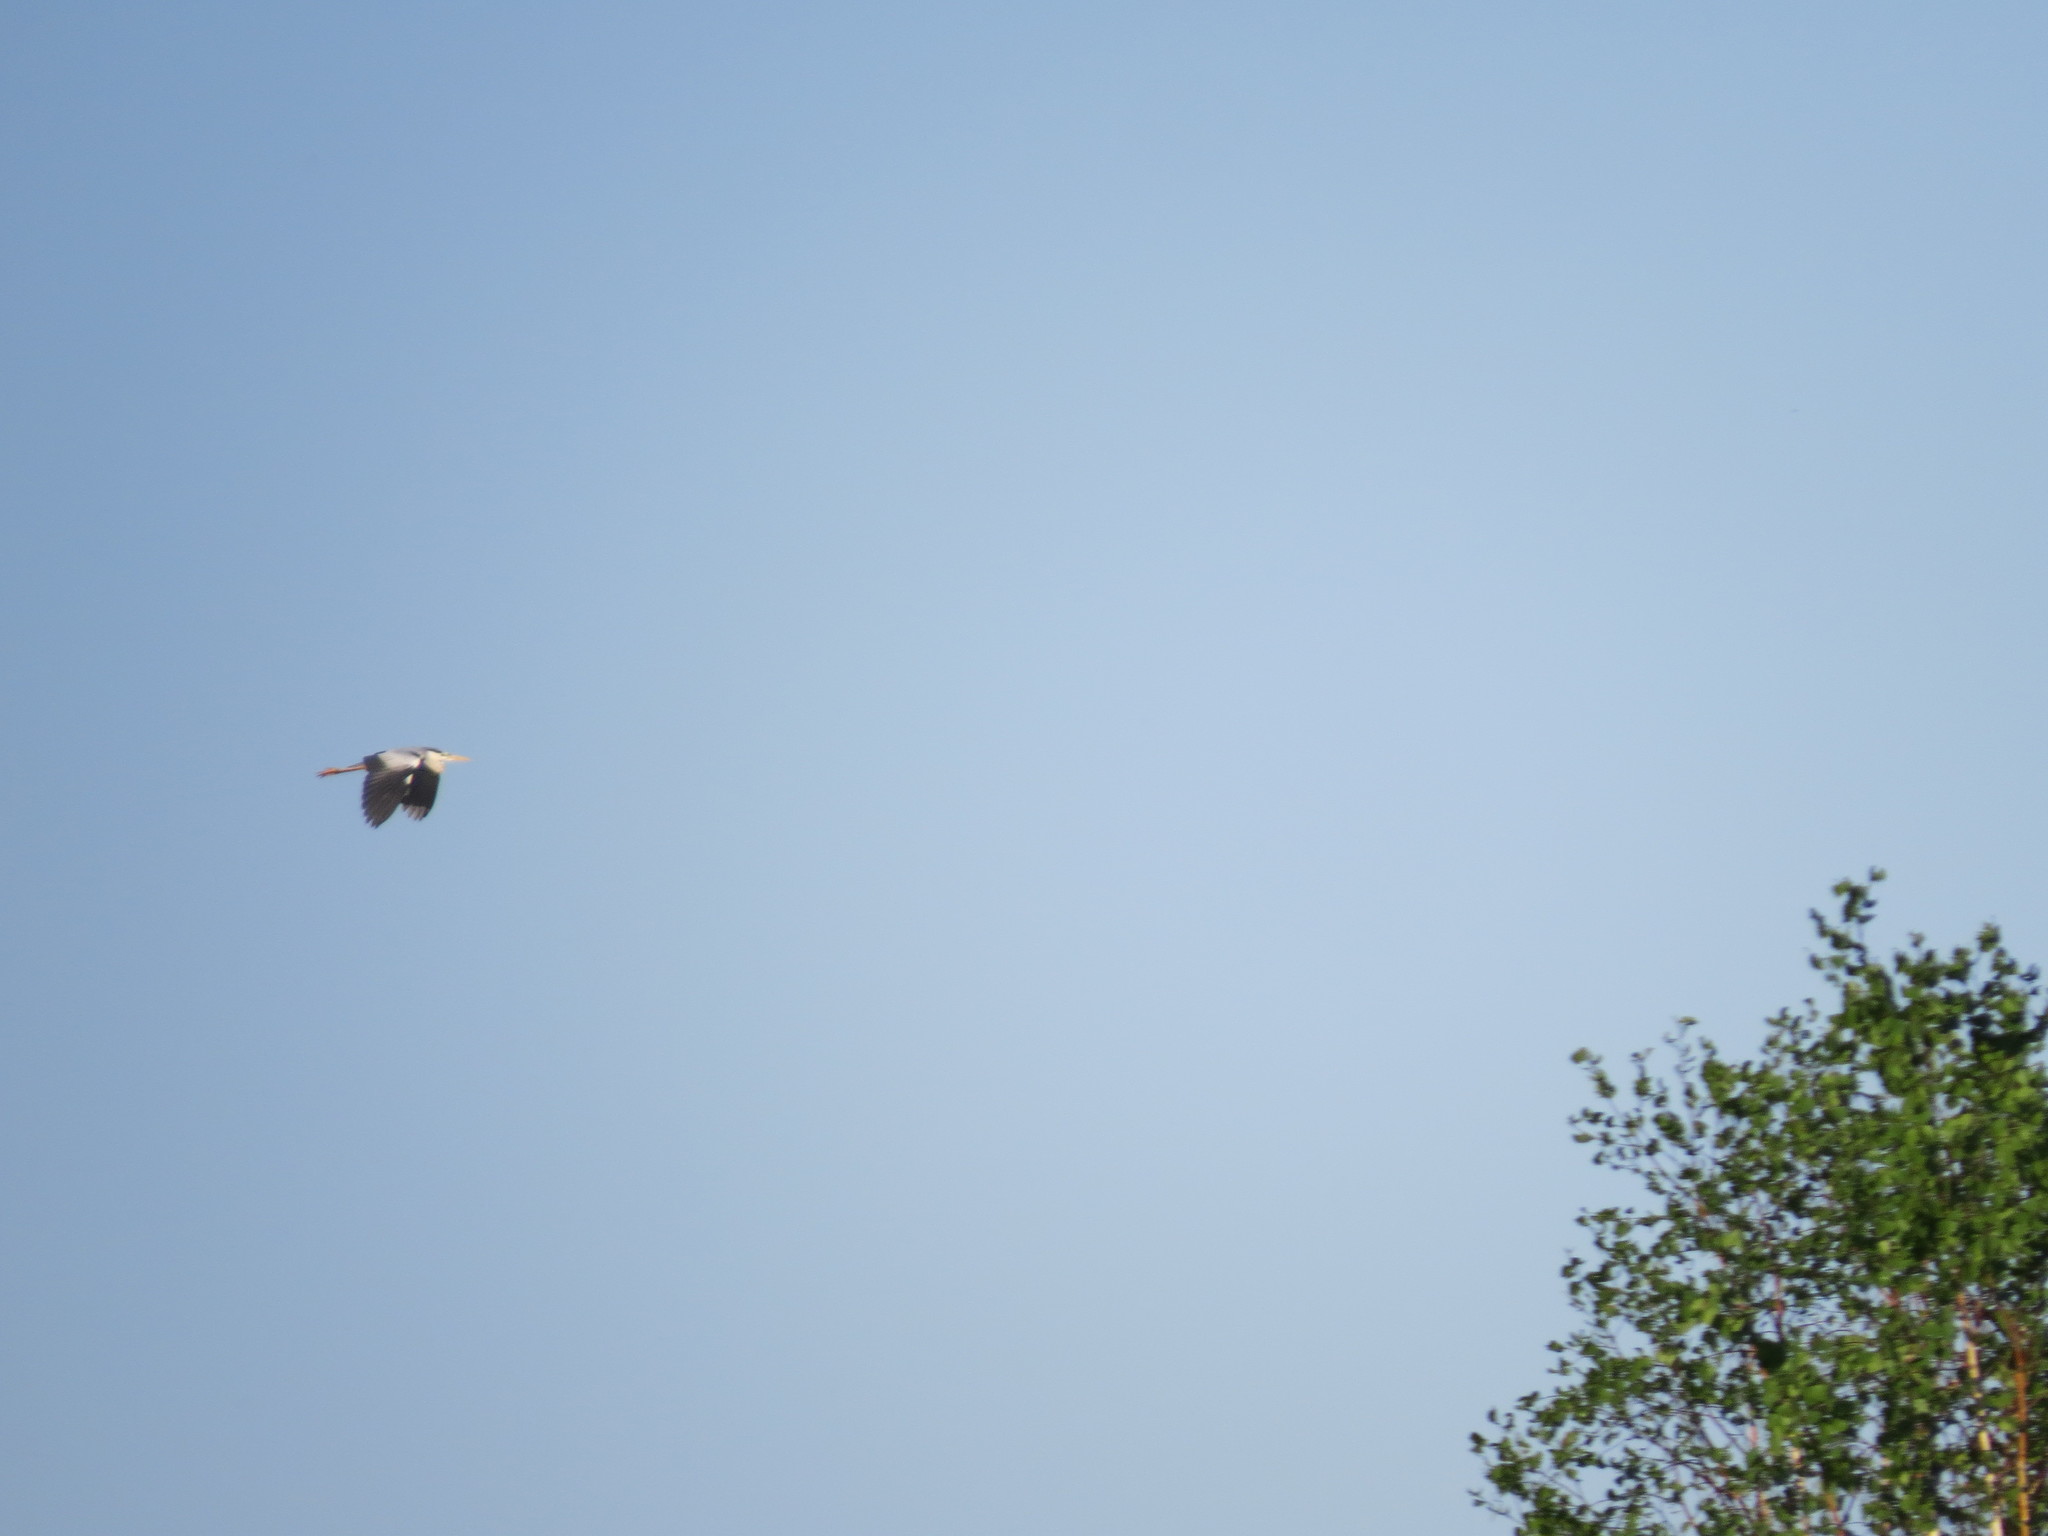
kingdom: Animalia
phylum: Chordata
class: Aves
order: Pelecaniformes
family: Ardeidae
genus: Ardea
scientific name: Ardea cinerea
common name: Grey heron
